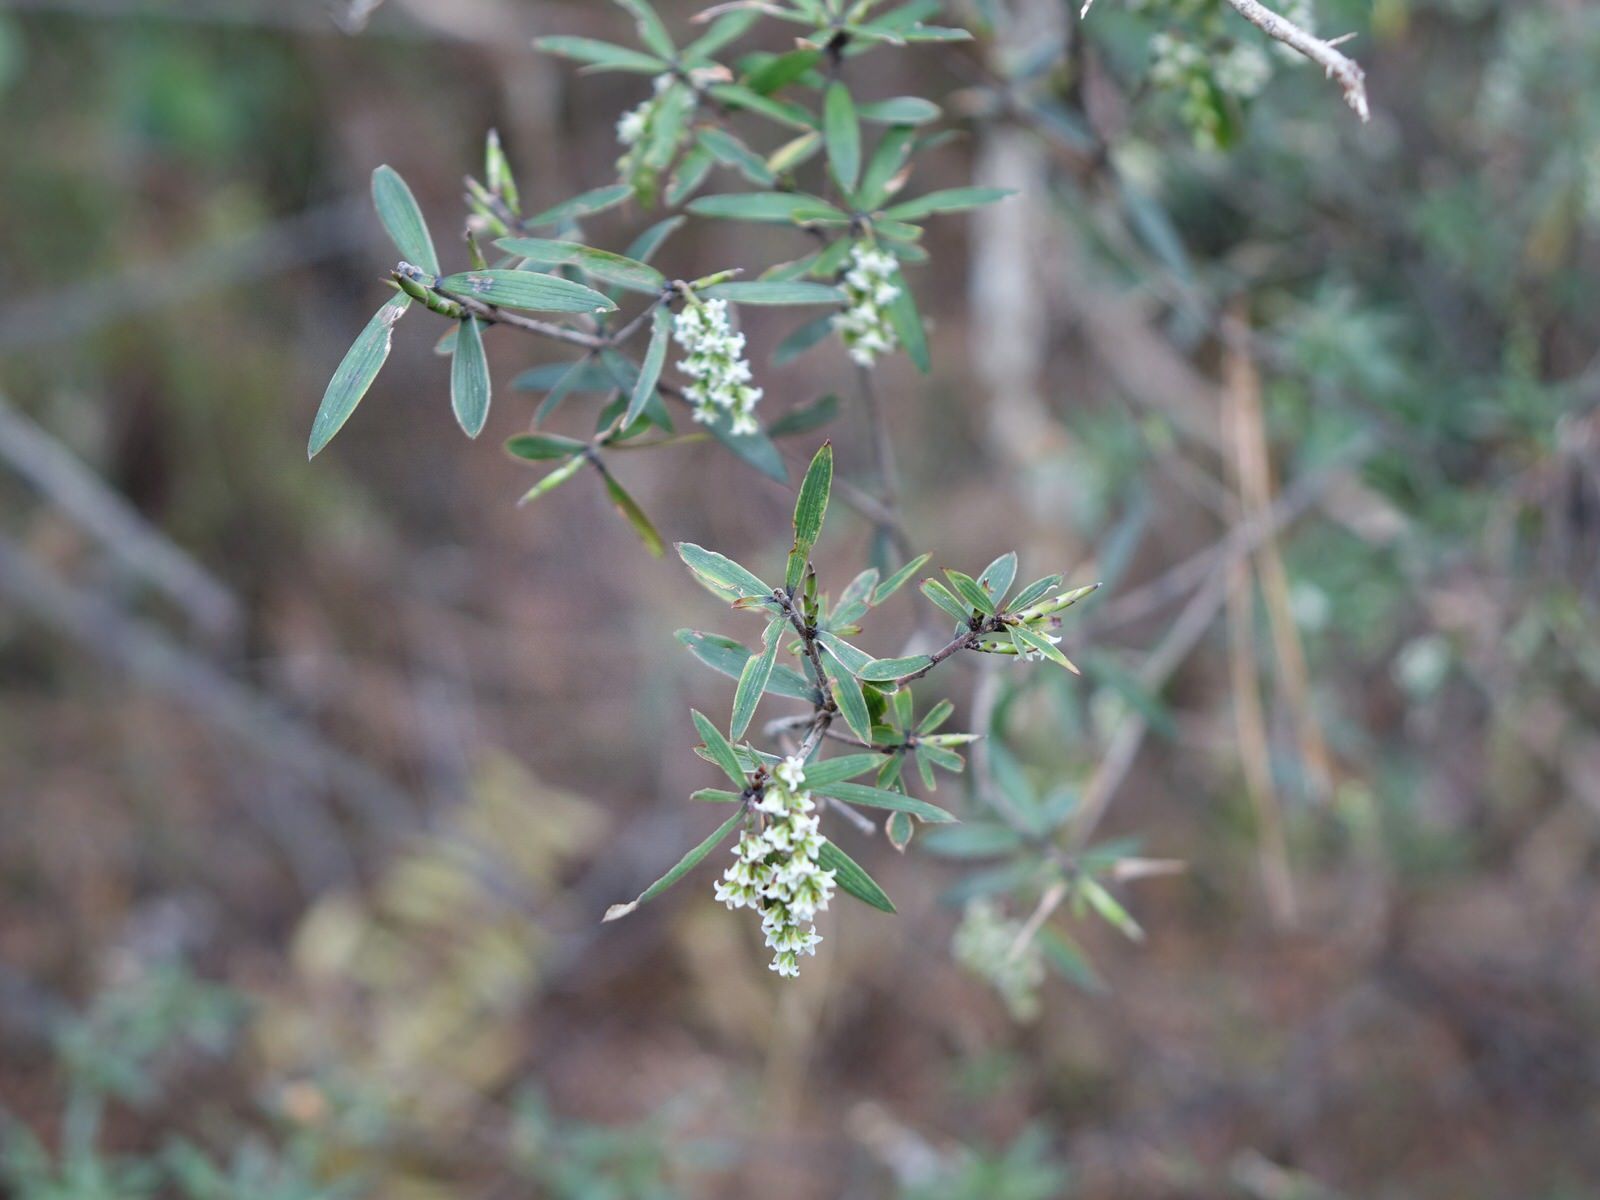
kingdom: Plantae
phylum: Tracheophyta
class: Magnoliopsida
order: Ericales
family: Ericaceae
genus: Leucopogon
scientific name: Leucopogon fasciculatus
